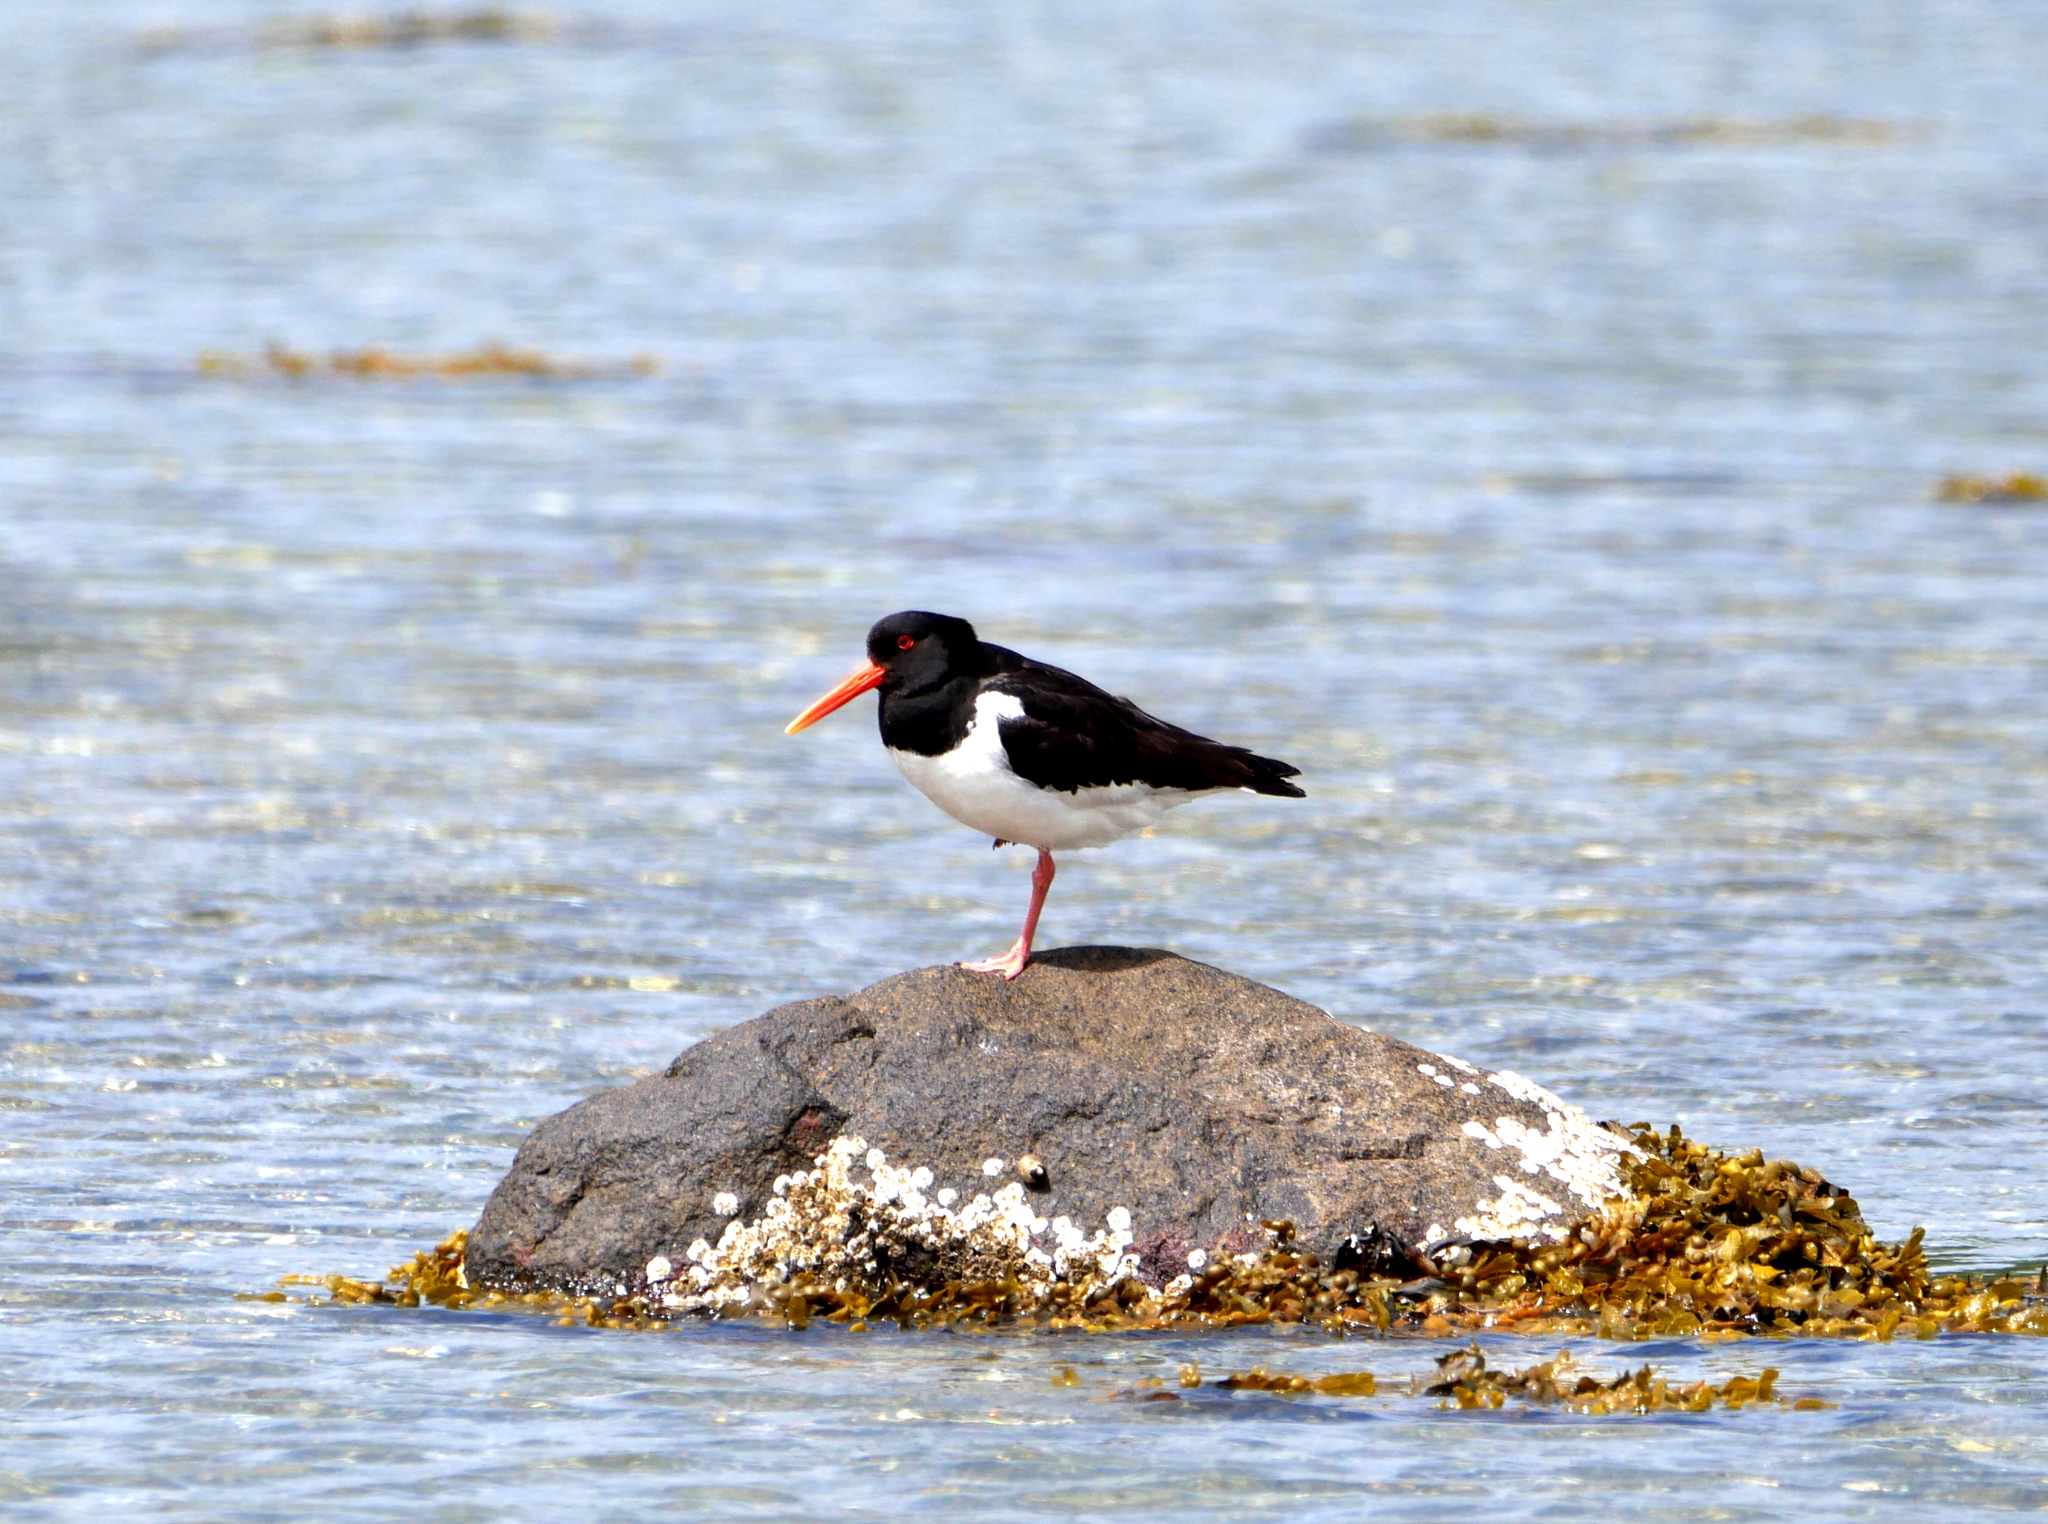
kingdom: Animalia
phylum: Chordata
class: Aves
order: Charadriiformes
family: Haematopodidae
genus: Haematopus
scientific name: Haematopus ostralegus
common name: Eurasian oystercatcher
